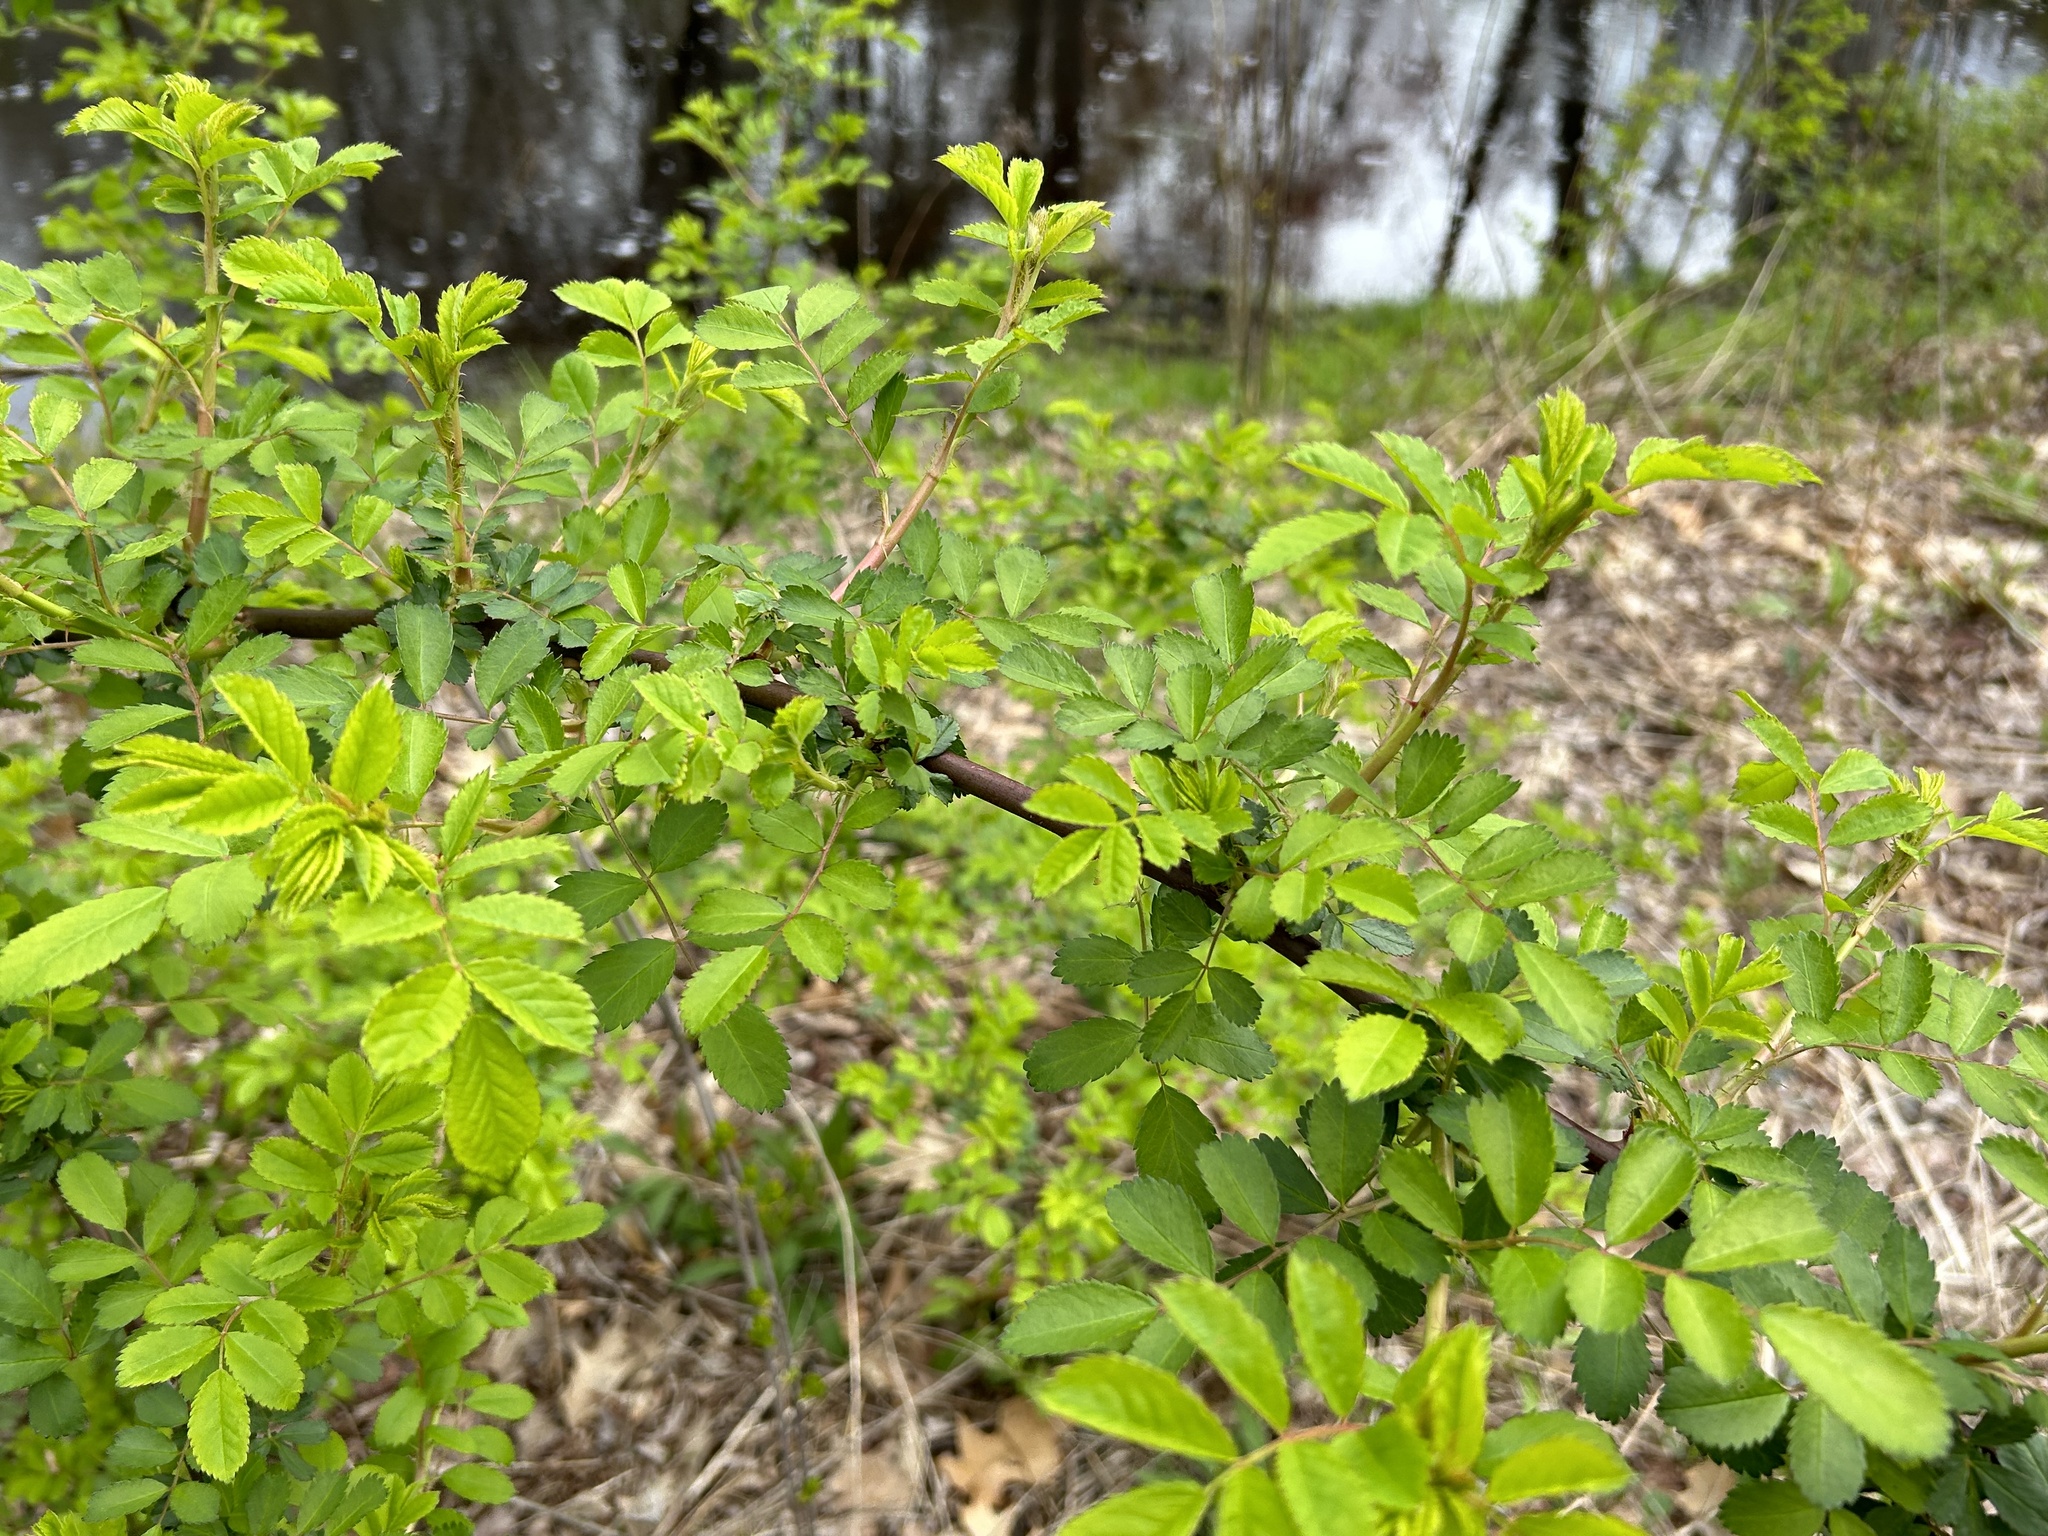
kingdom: Plantae
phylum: Tracheophyta
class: Magnoliopsida
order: Rosales
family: Rosaceae
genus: Rosa
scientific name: Rosa multiflora
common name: Multiflora rose
